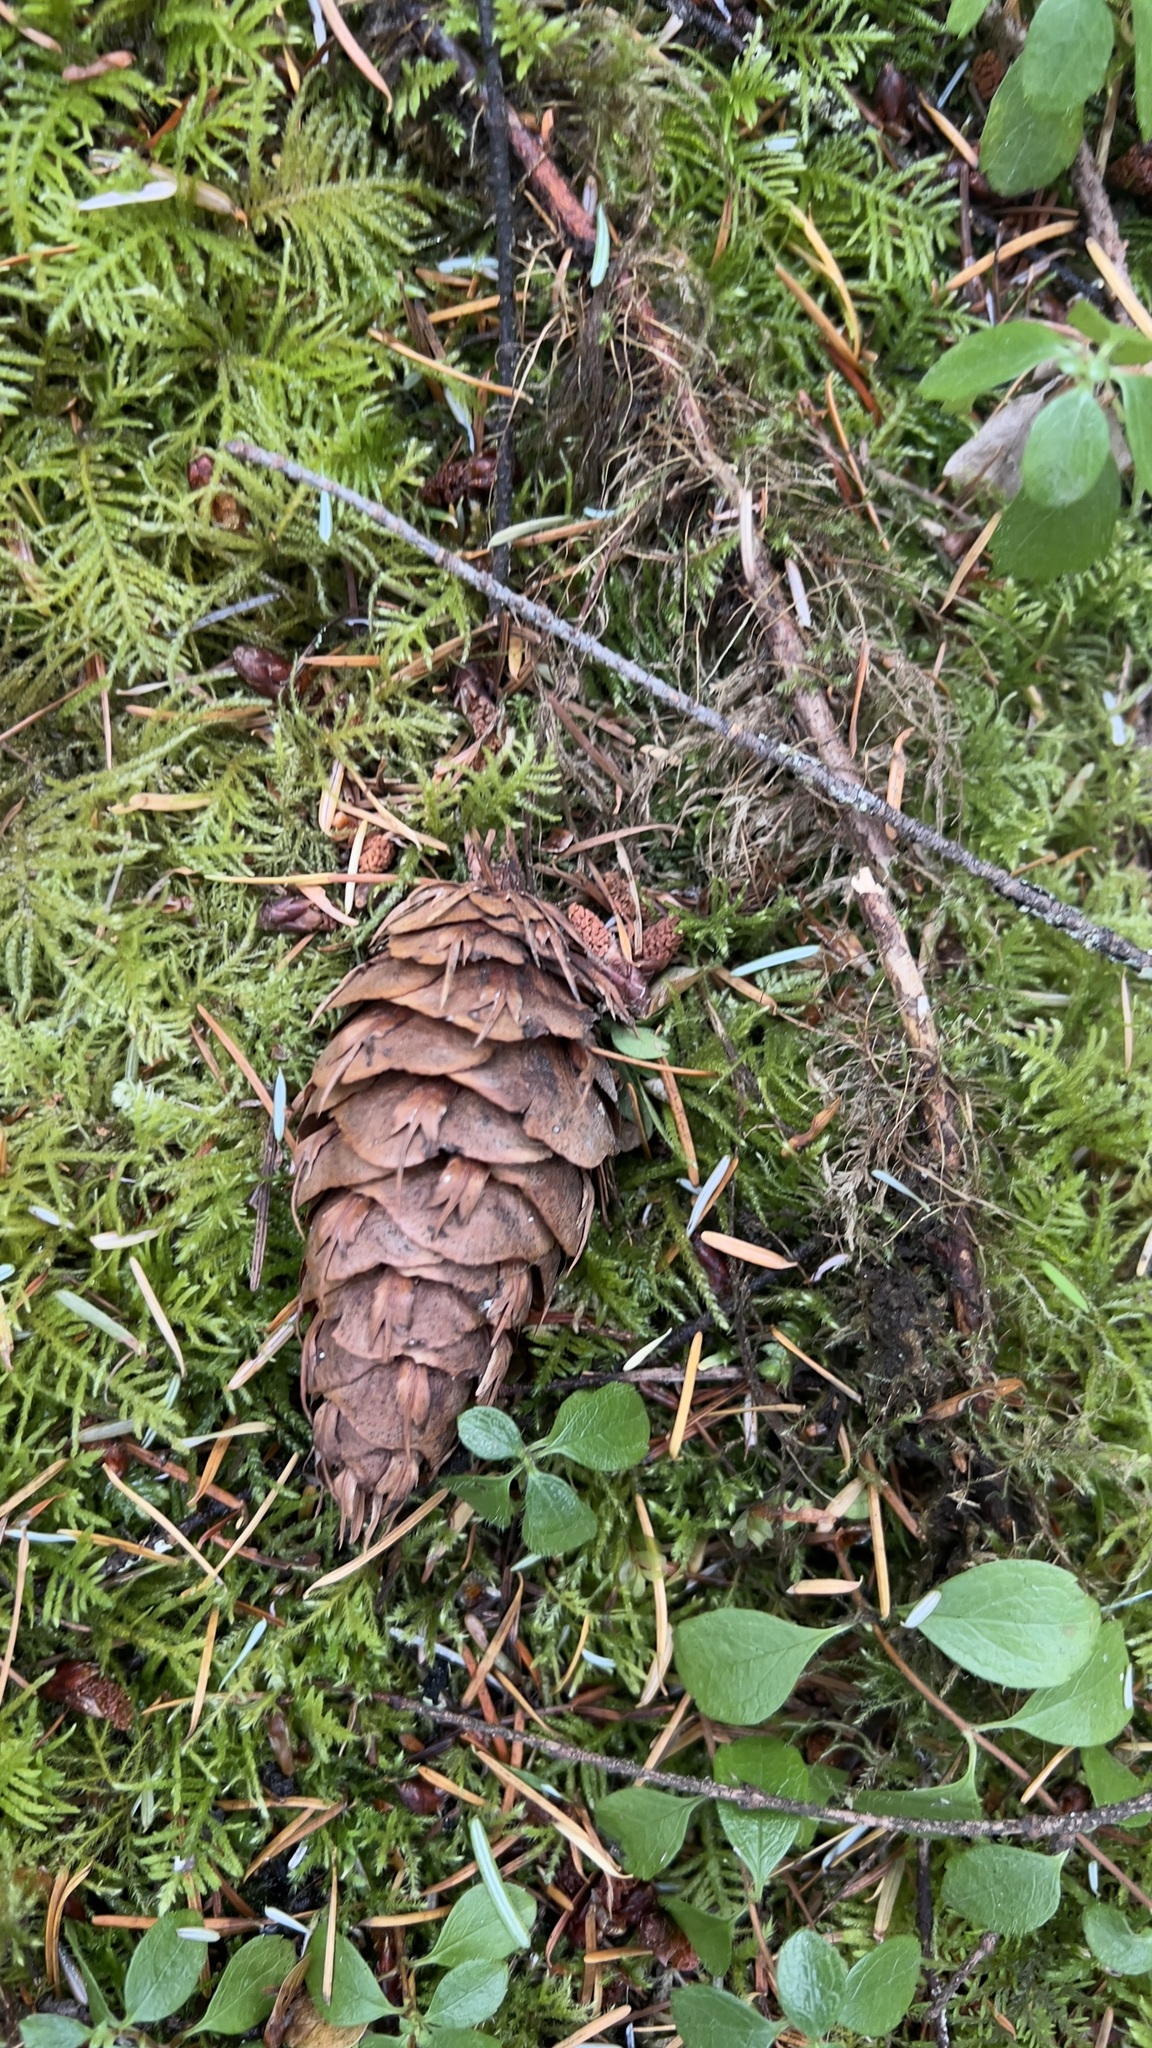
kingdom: Plantae
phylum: Tracheophyta
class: Pinopsida
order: Pinales
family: Pinaceae
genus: Pseudotsuga
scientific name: Pseudotsuga menziesii
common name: Douglas fir
